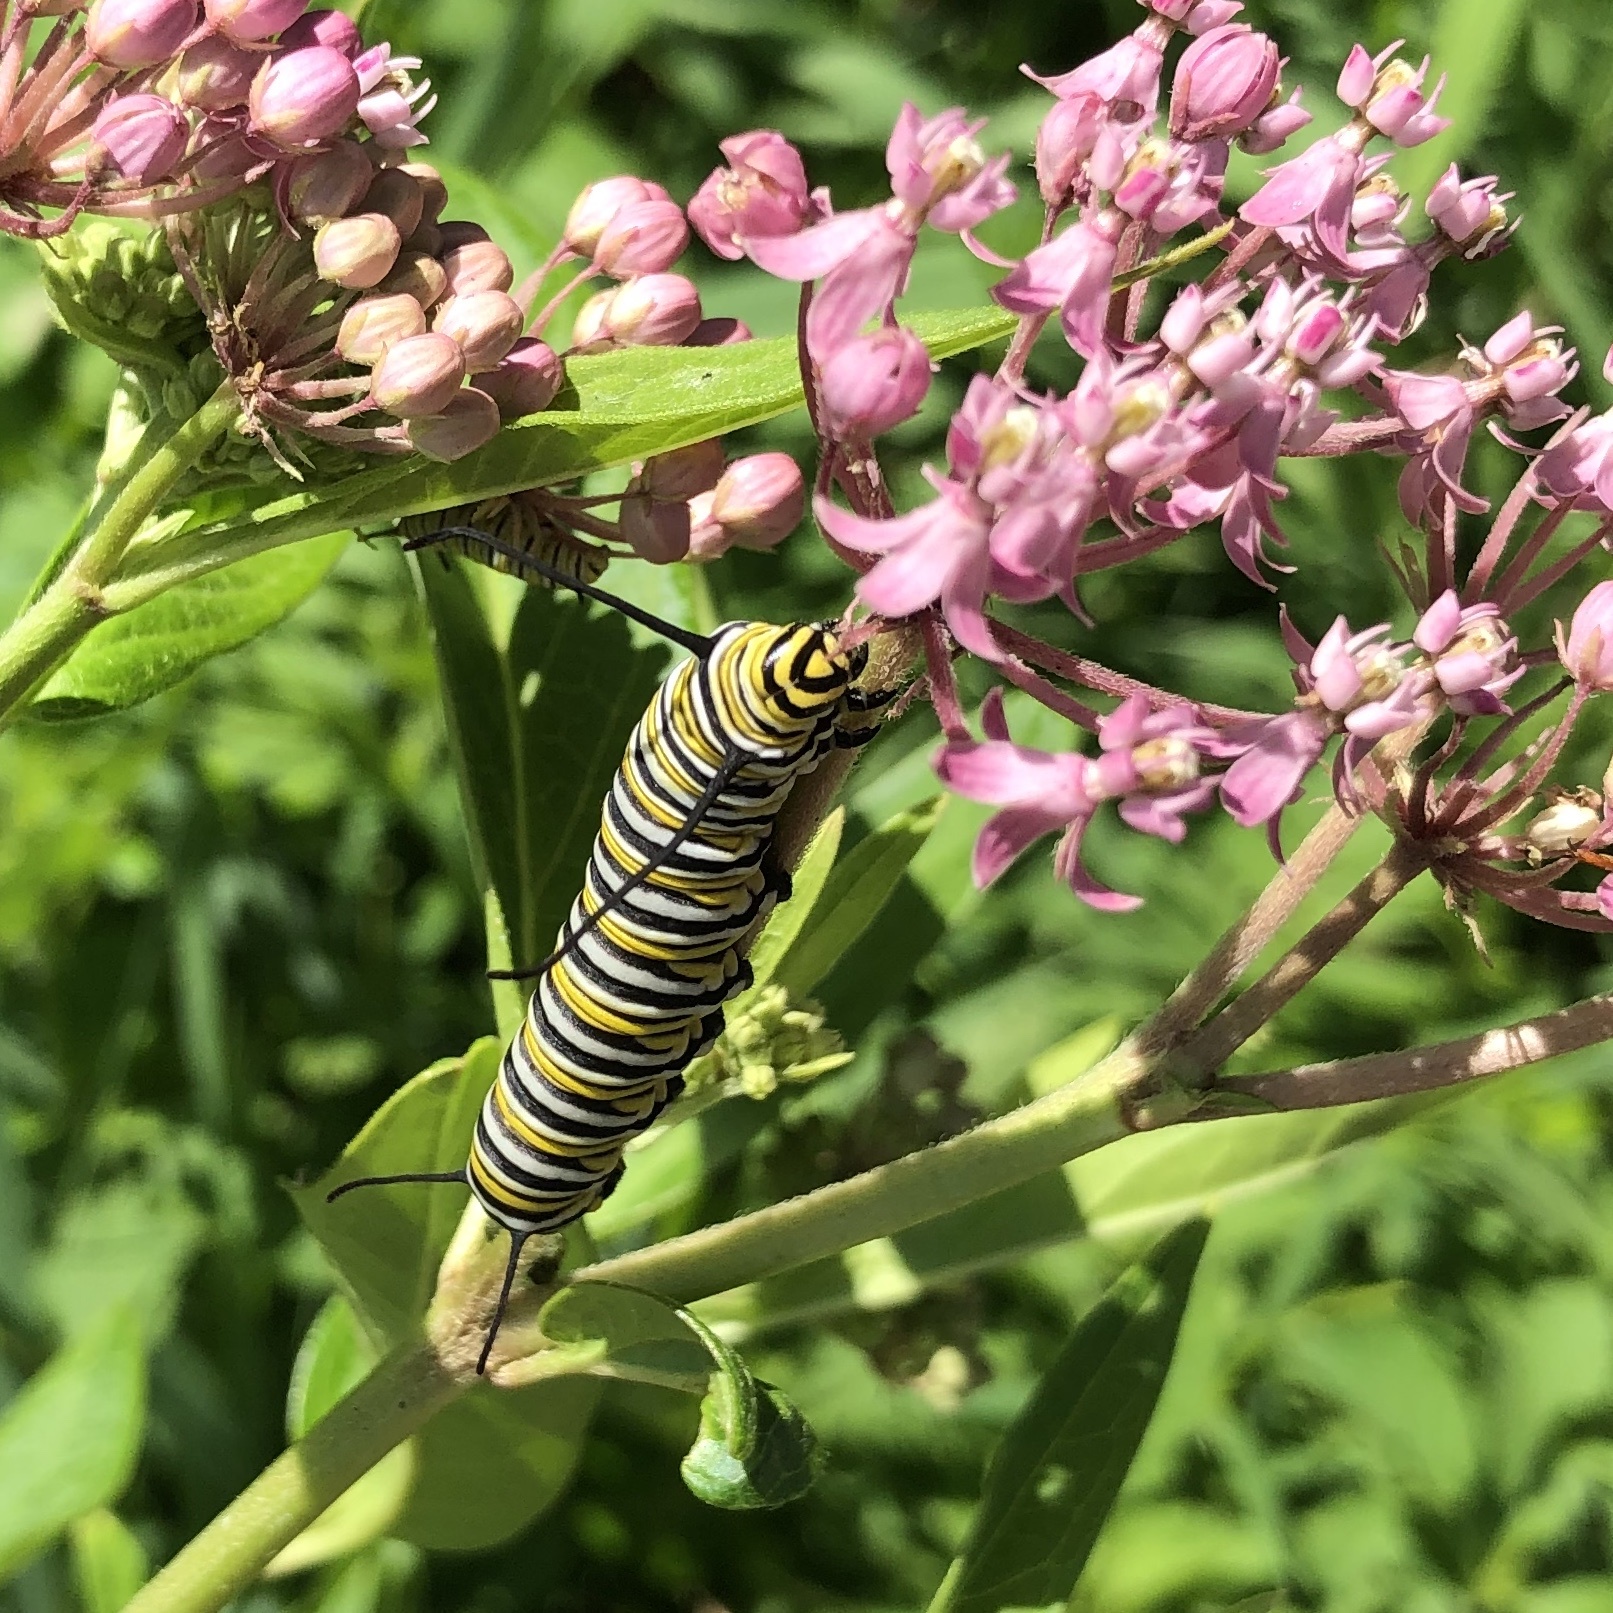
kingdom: Animalia
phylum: Arthropoda
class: Insecta
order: Lepidoptera
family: Nymphalidae
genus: Danaus
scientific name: Danaus plexippus
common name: Monarch
